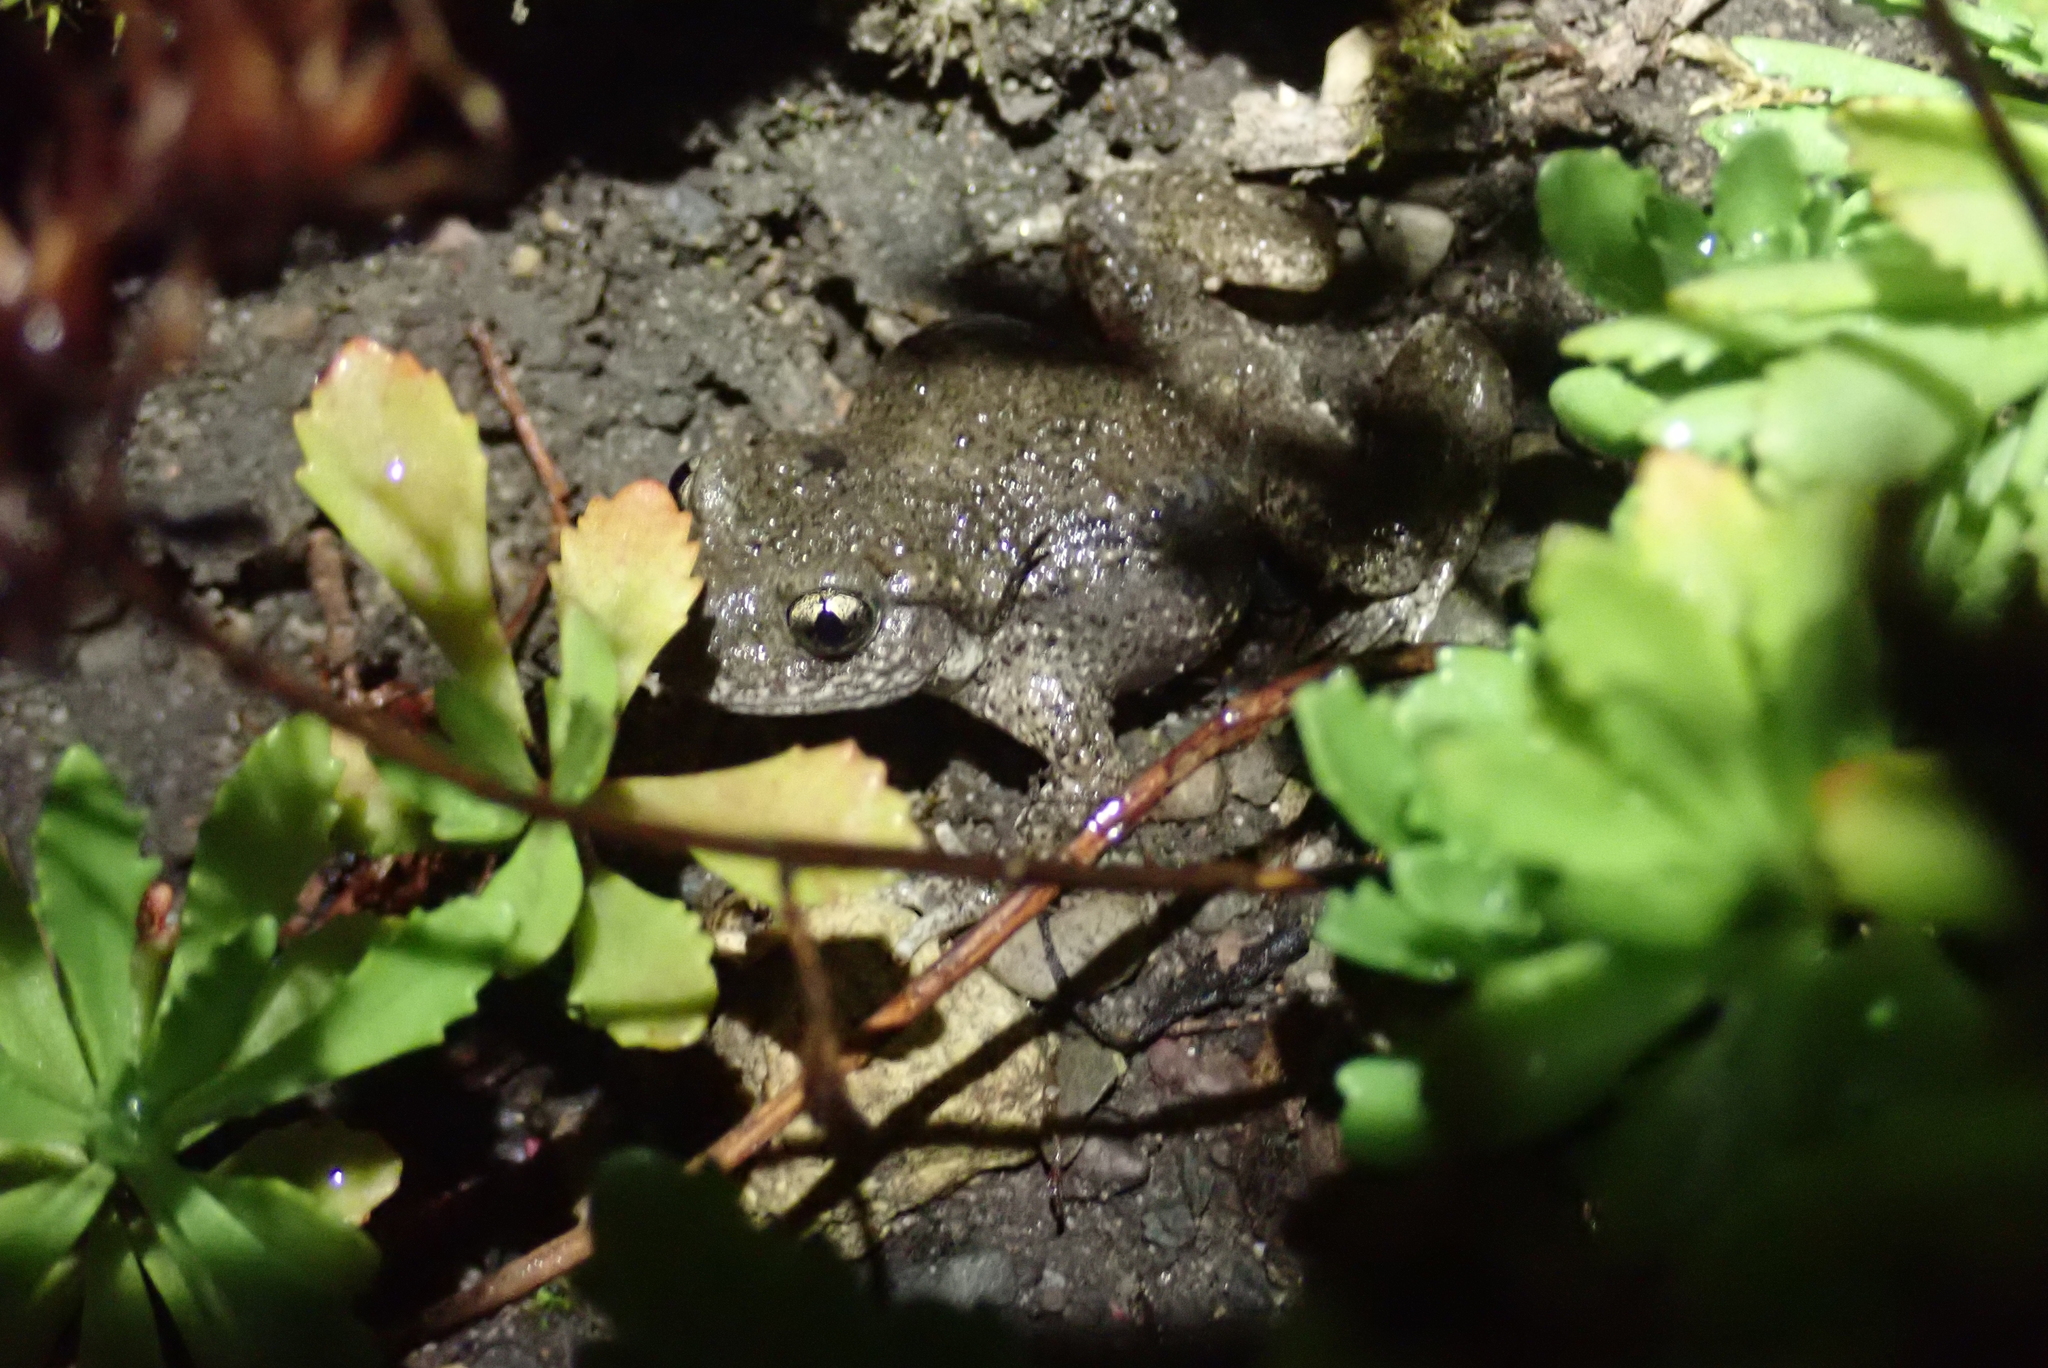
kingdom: Animalia
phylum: Chordata
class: Amphibia
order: Anura
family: Alytidae
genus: Alytes
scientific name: Alytes obstetricans
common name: Midwife toad
